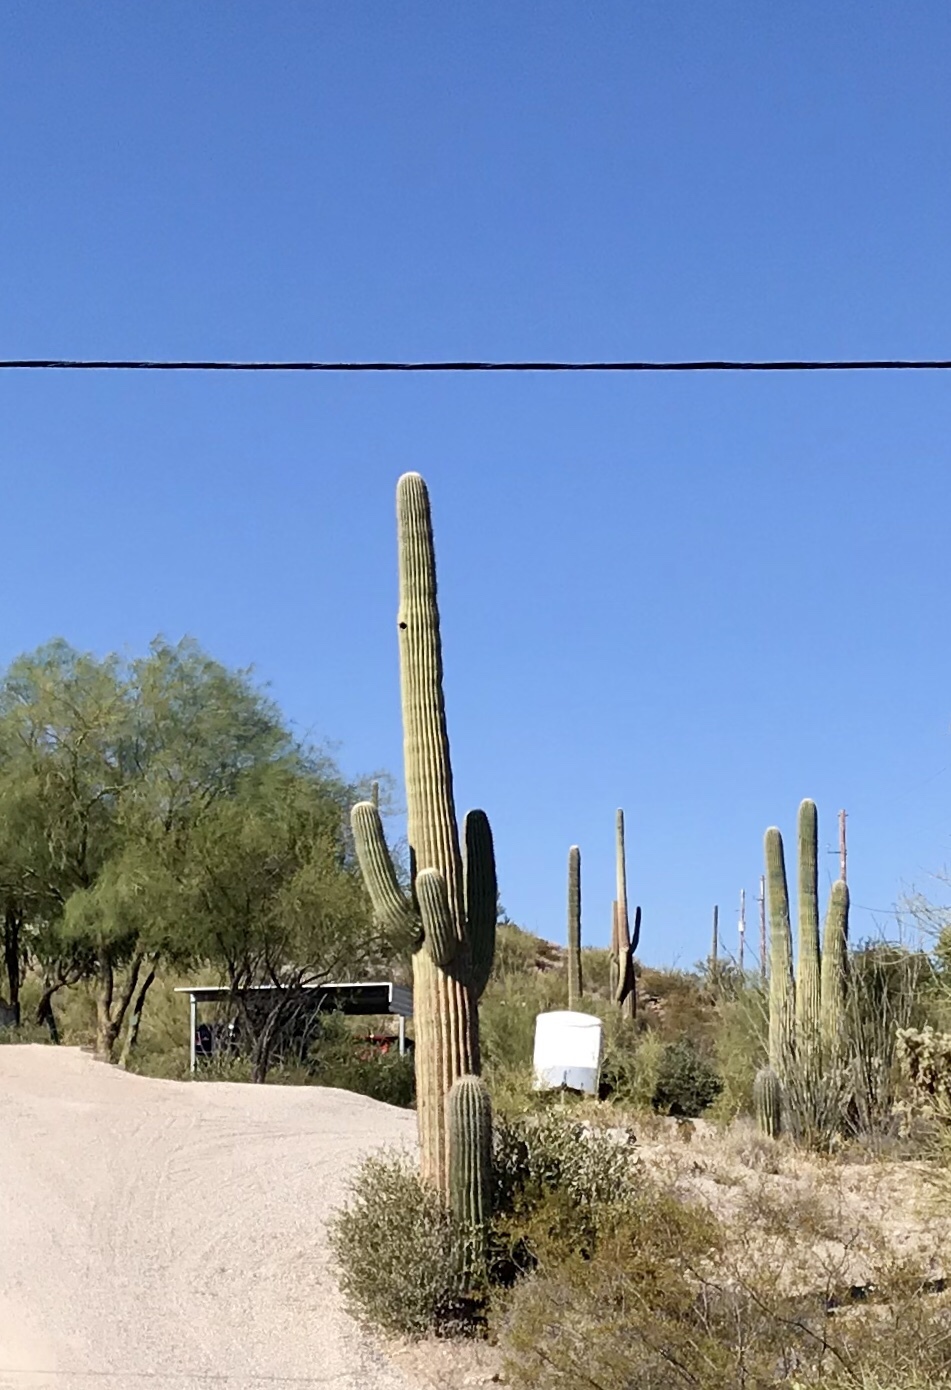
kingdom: Plantae
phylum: Tracheophyta
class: Magnoliopsida
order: Caryophyllales
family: Cactaceae
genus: Carnegiea
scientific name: Carnegiea gigantea
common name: Saguaro
